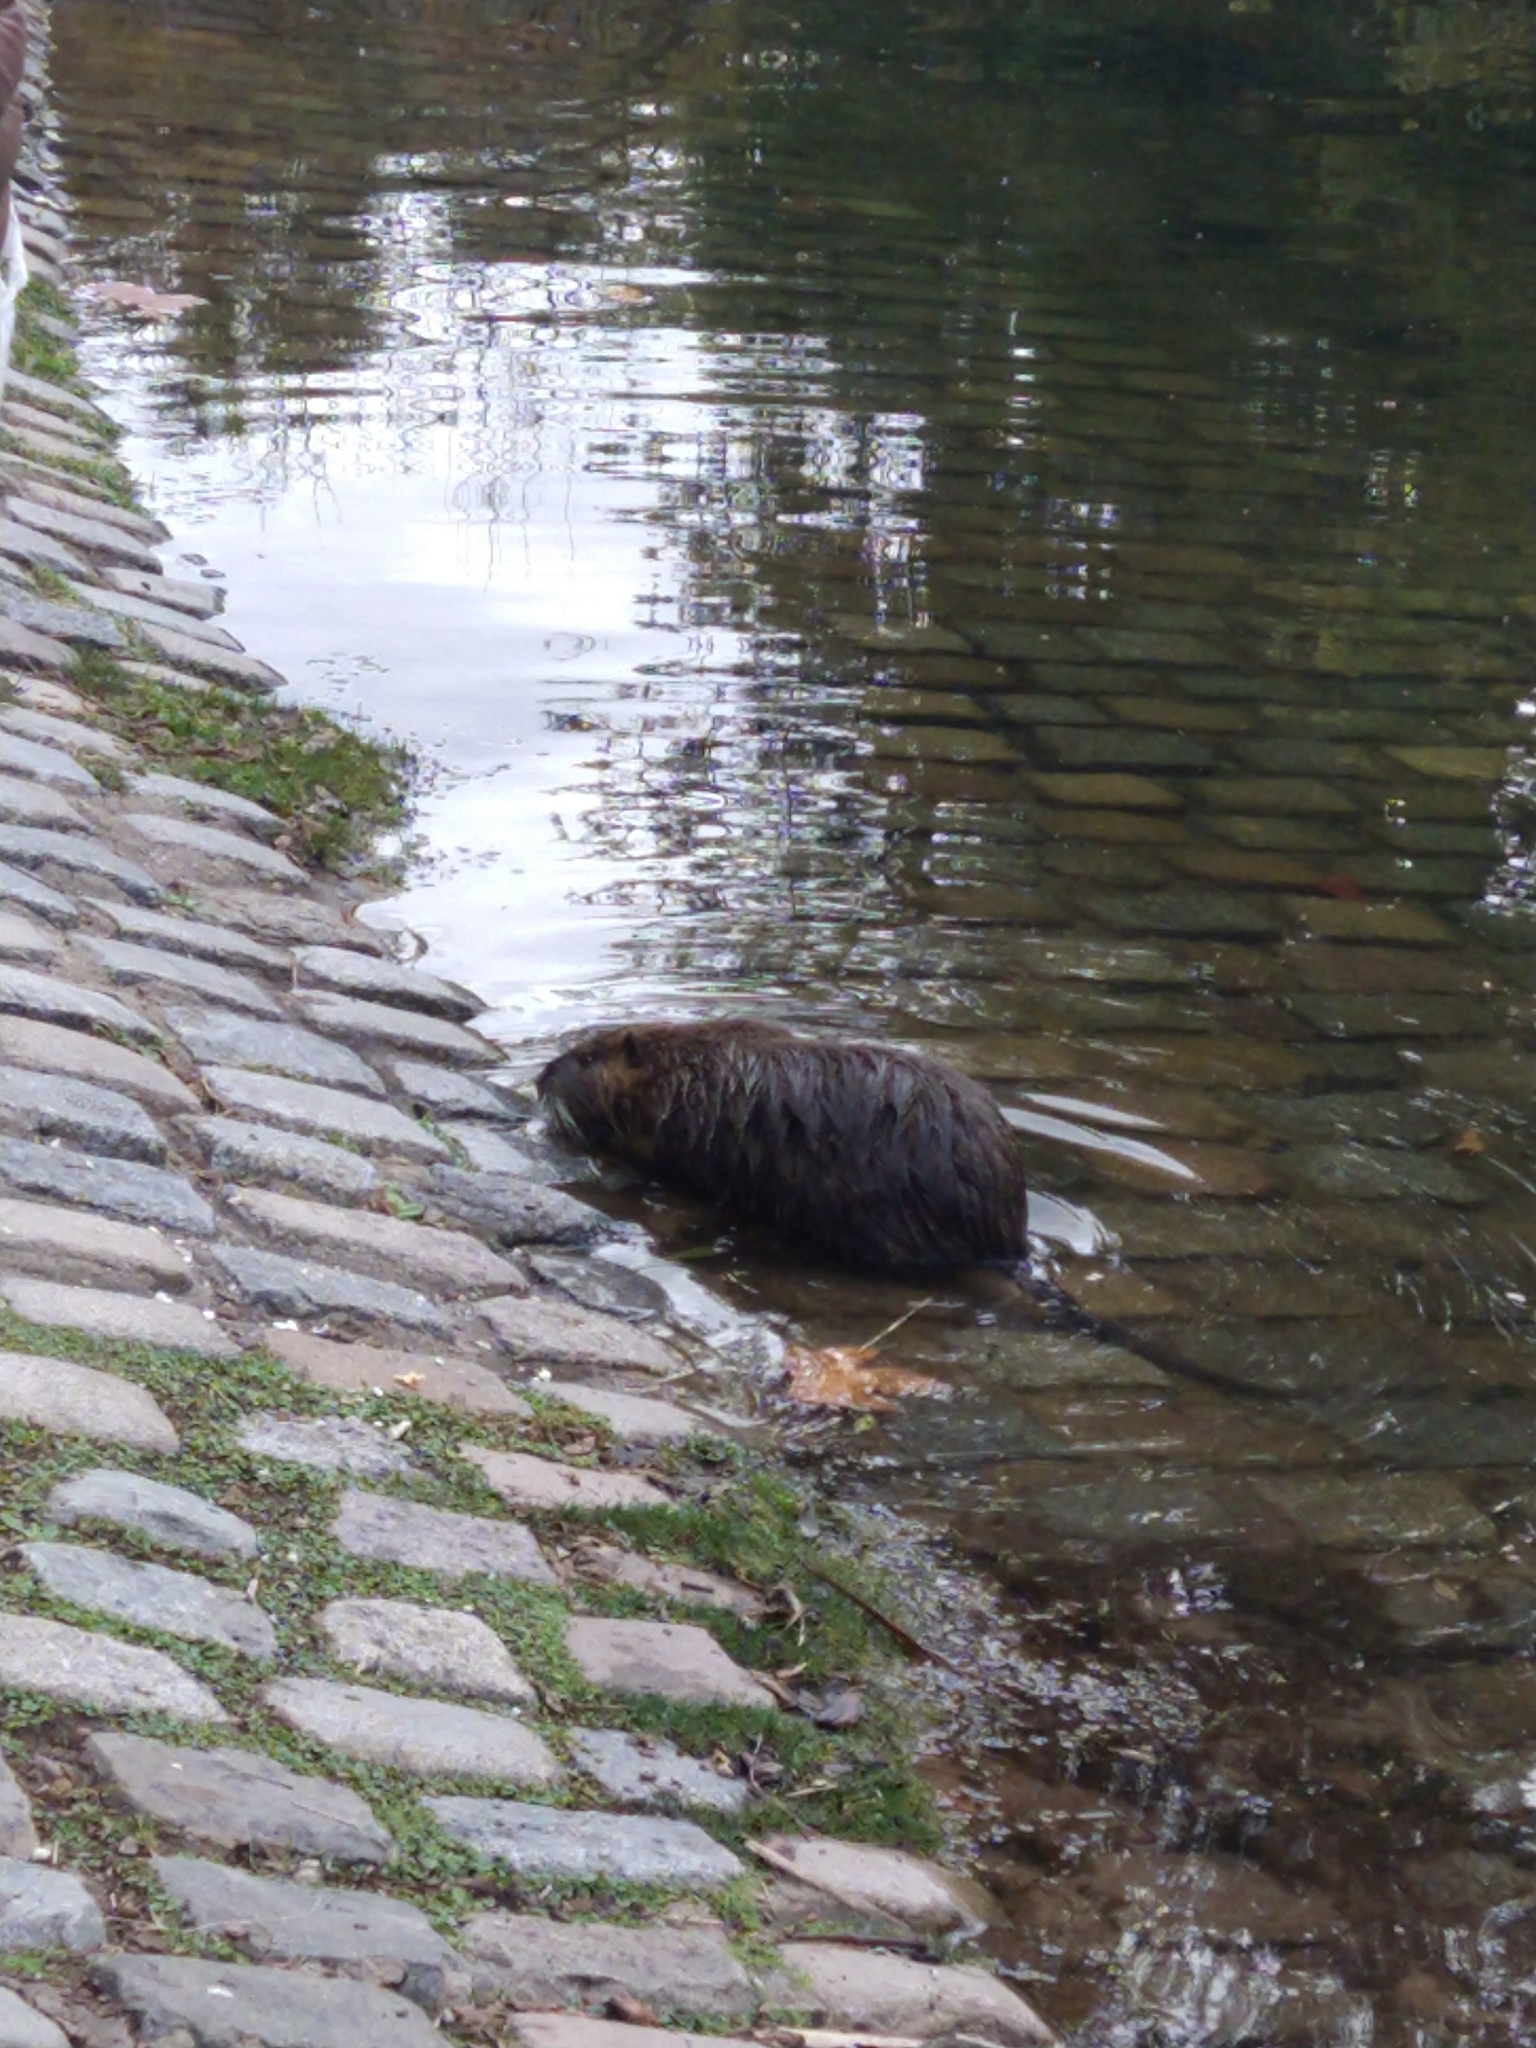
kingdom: Animalia
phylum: Chordata
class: Mammalia
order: Rodentia
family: Myocastoridae
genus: Myocastor
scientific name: Myocastor coypus
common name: Coypu
